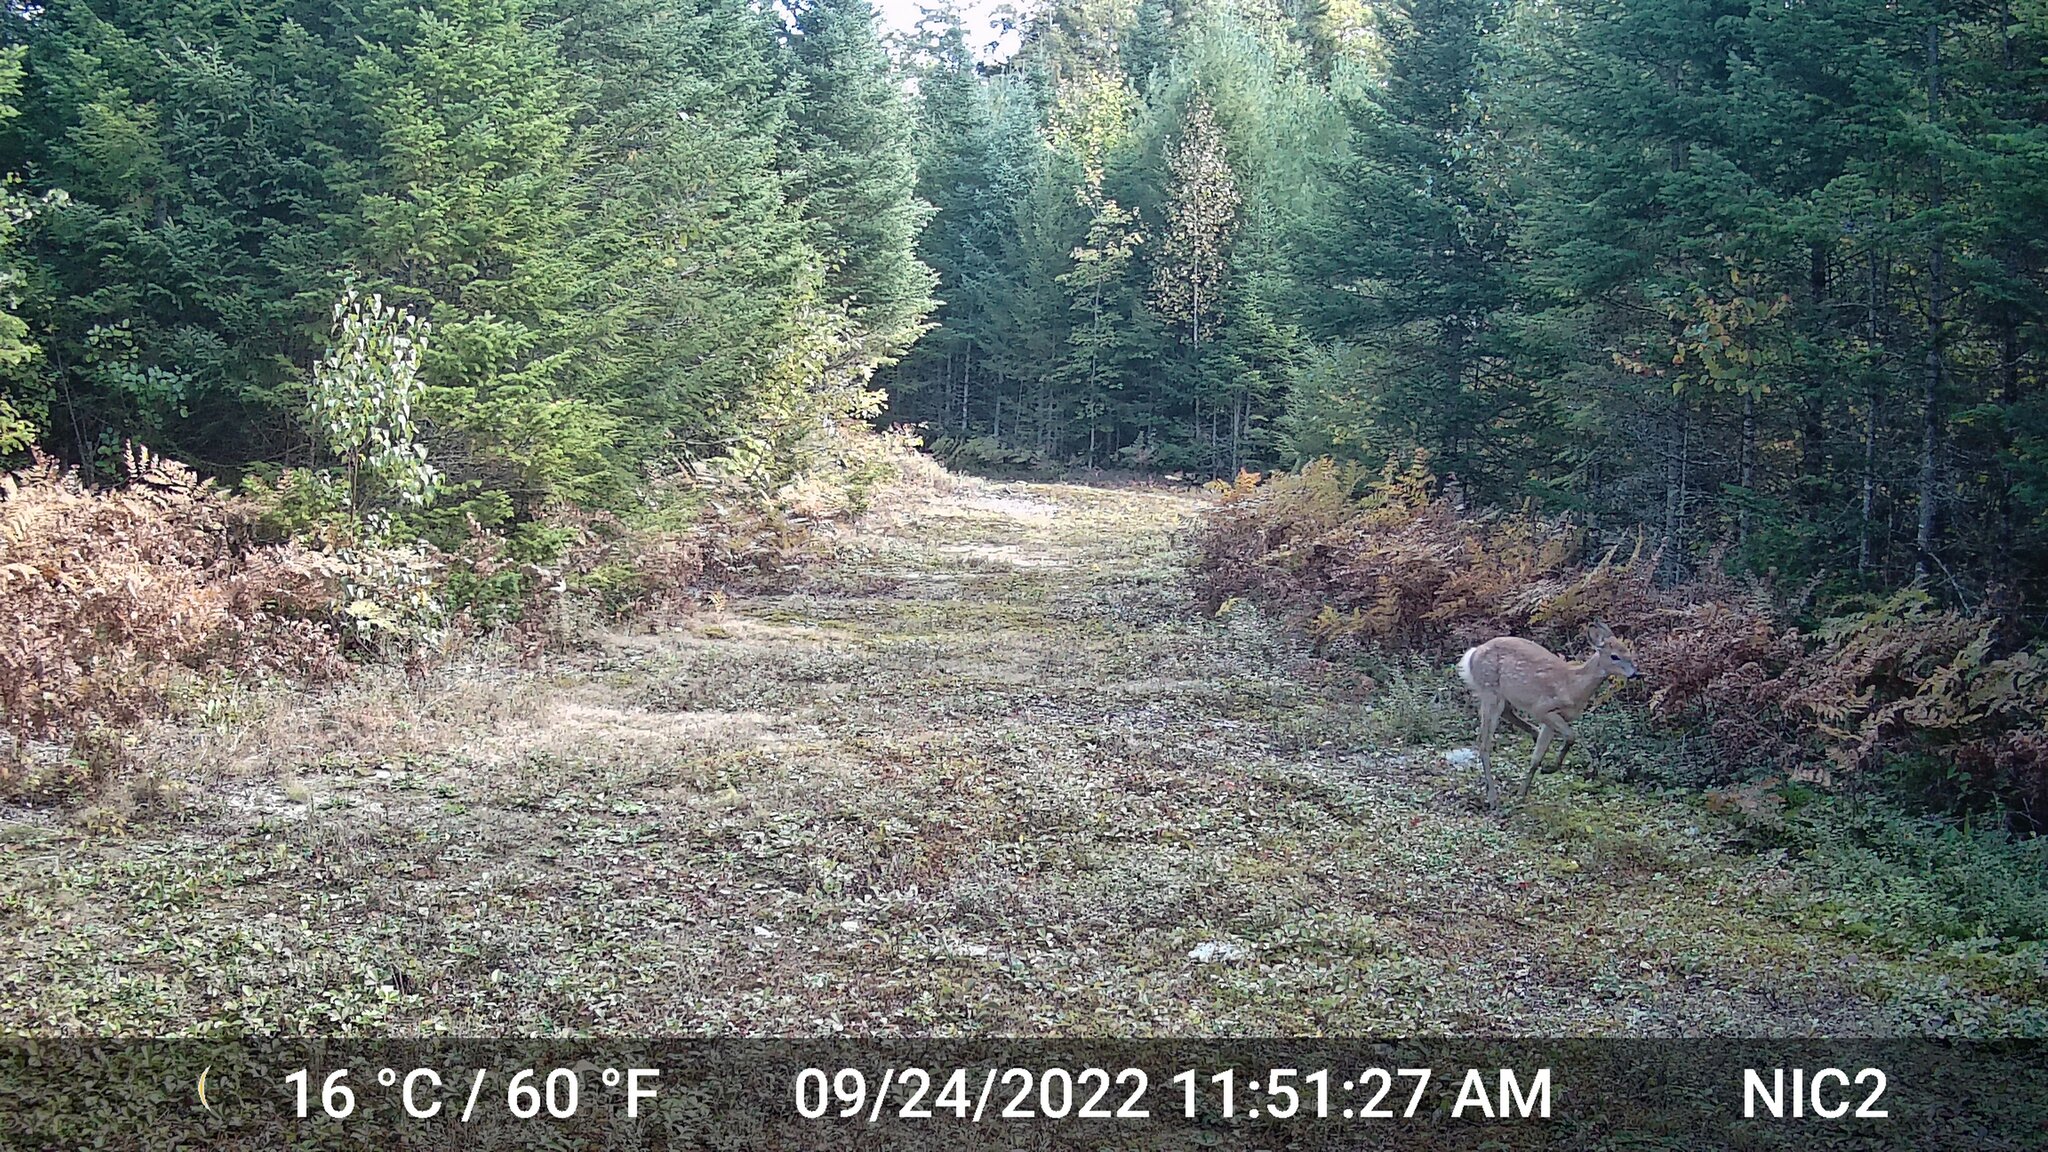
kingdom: Animalia
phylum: Chordata
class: Mammalia
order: Artiodactyla
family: Cervidae
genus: Odocoileus
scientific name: Odocoileus virginianus
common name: White-tailed deer
